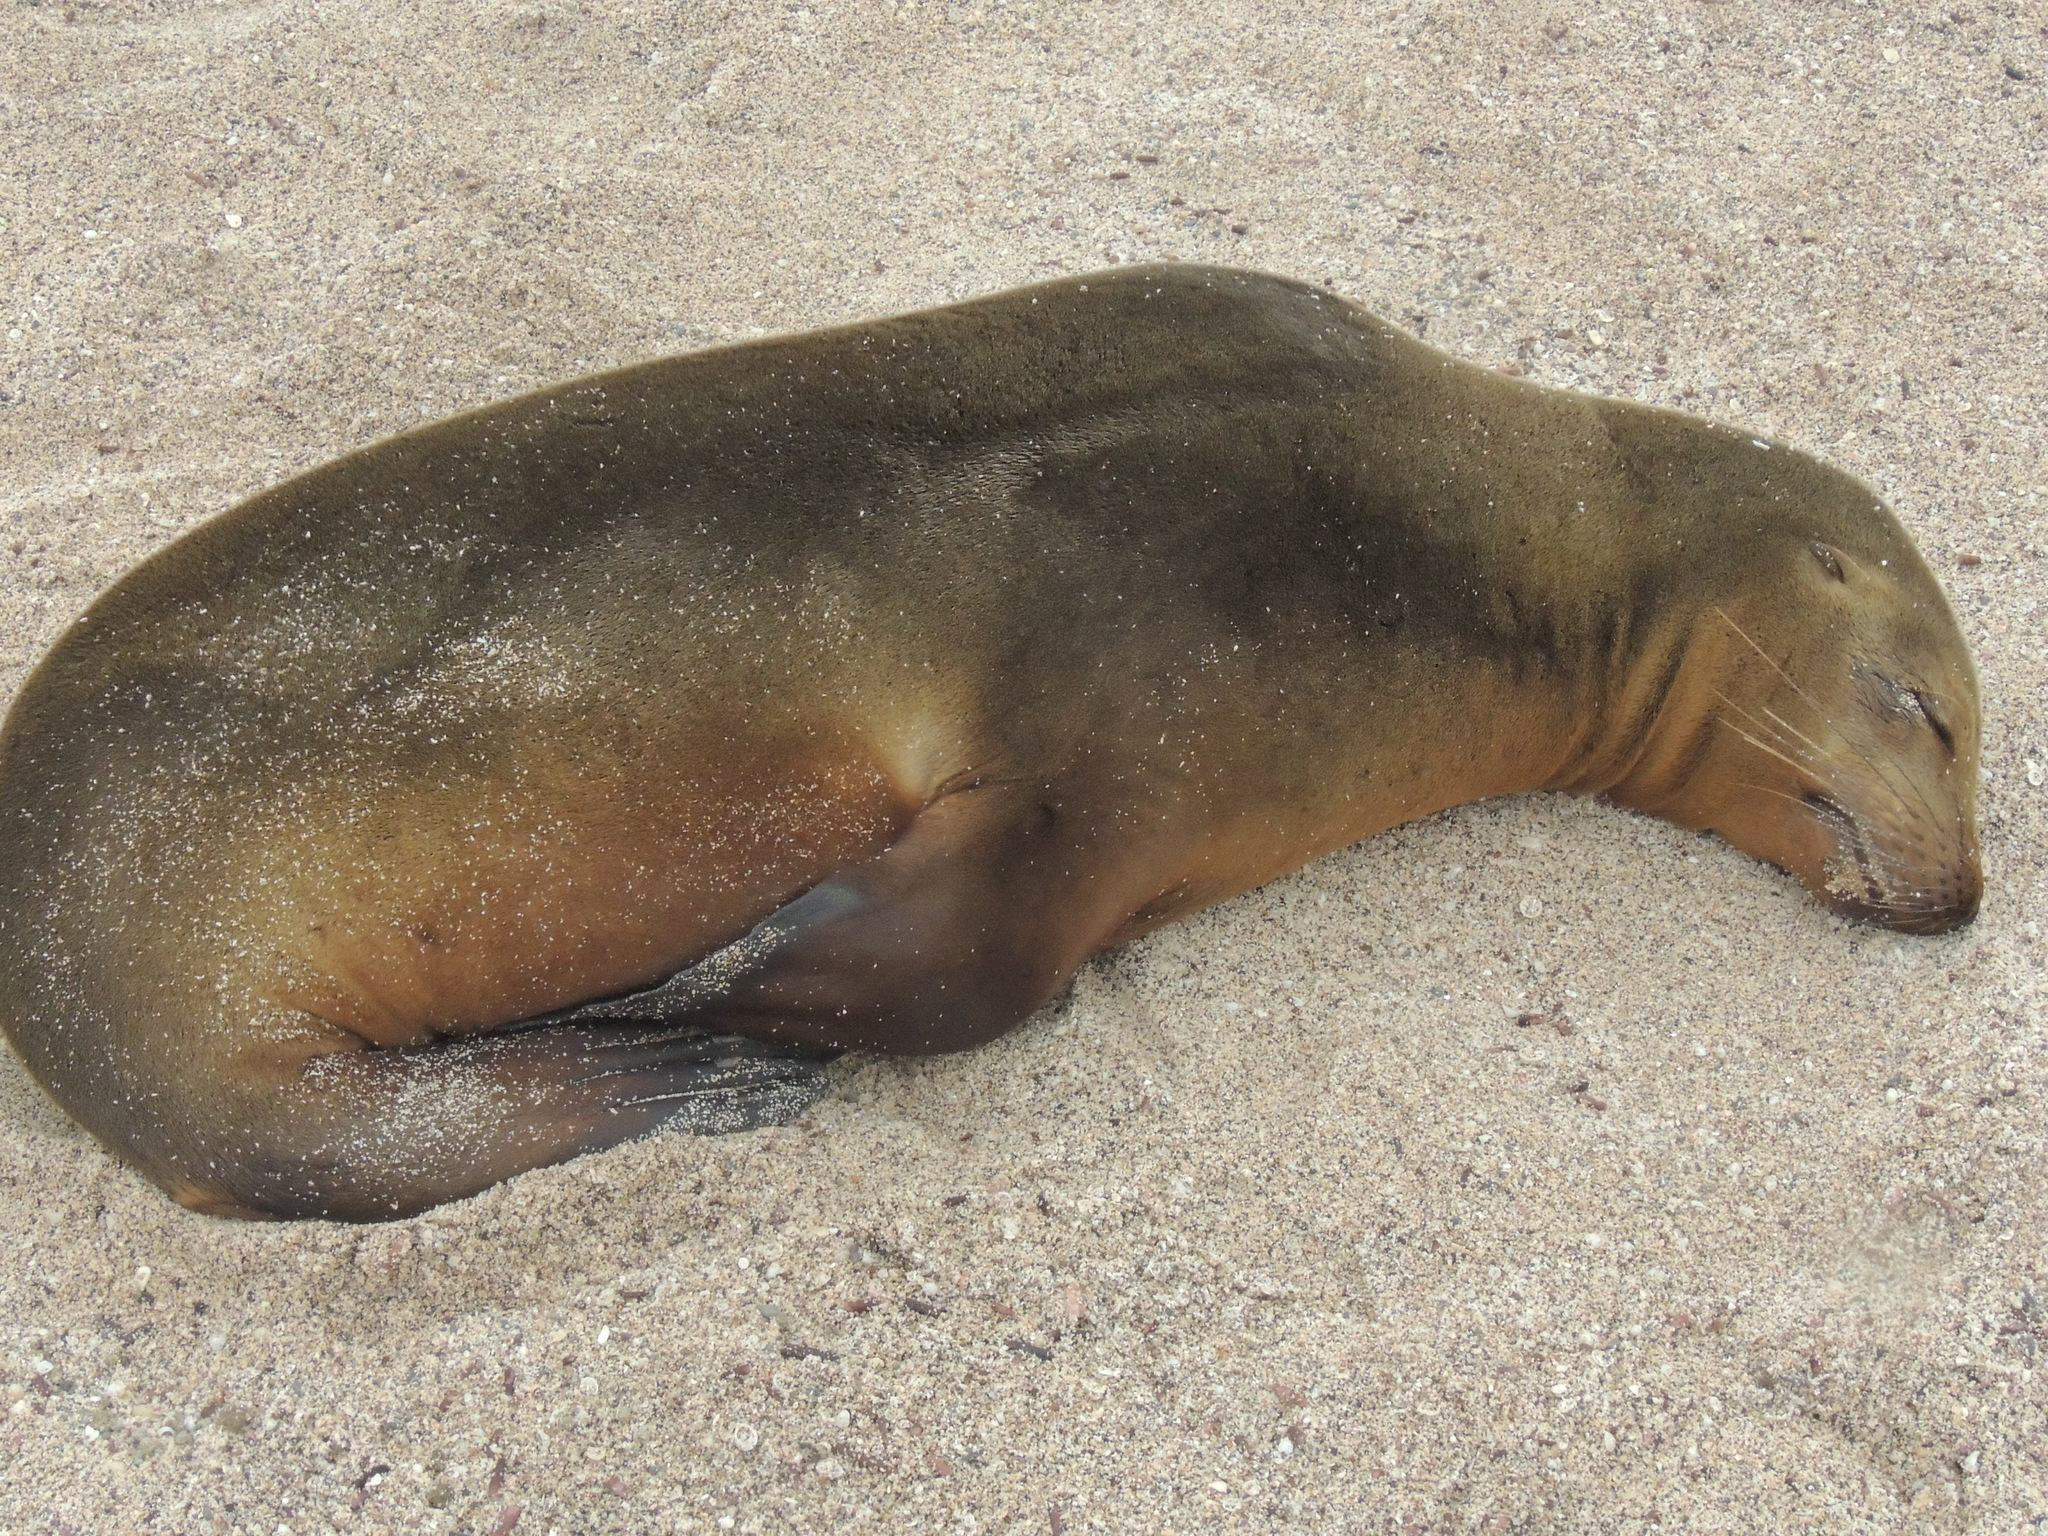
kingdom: Animalia
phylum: Chordata
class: Mammalia
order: Carnivora
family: Otariidae
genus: Zalophus
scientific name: Zalophus wollebaeki
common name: Galapagos sea lion
